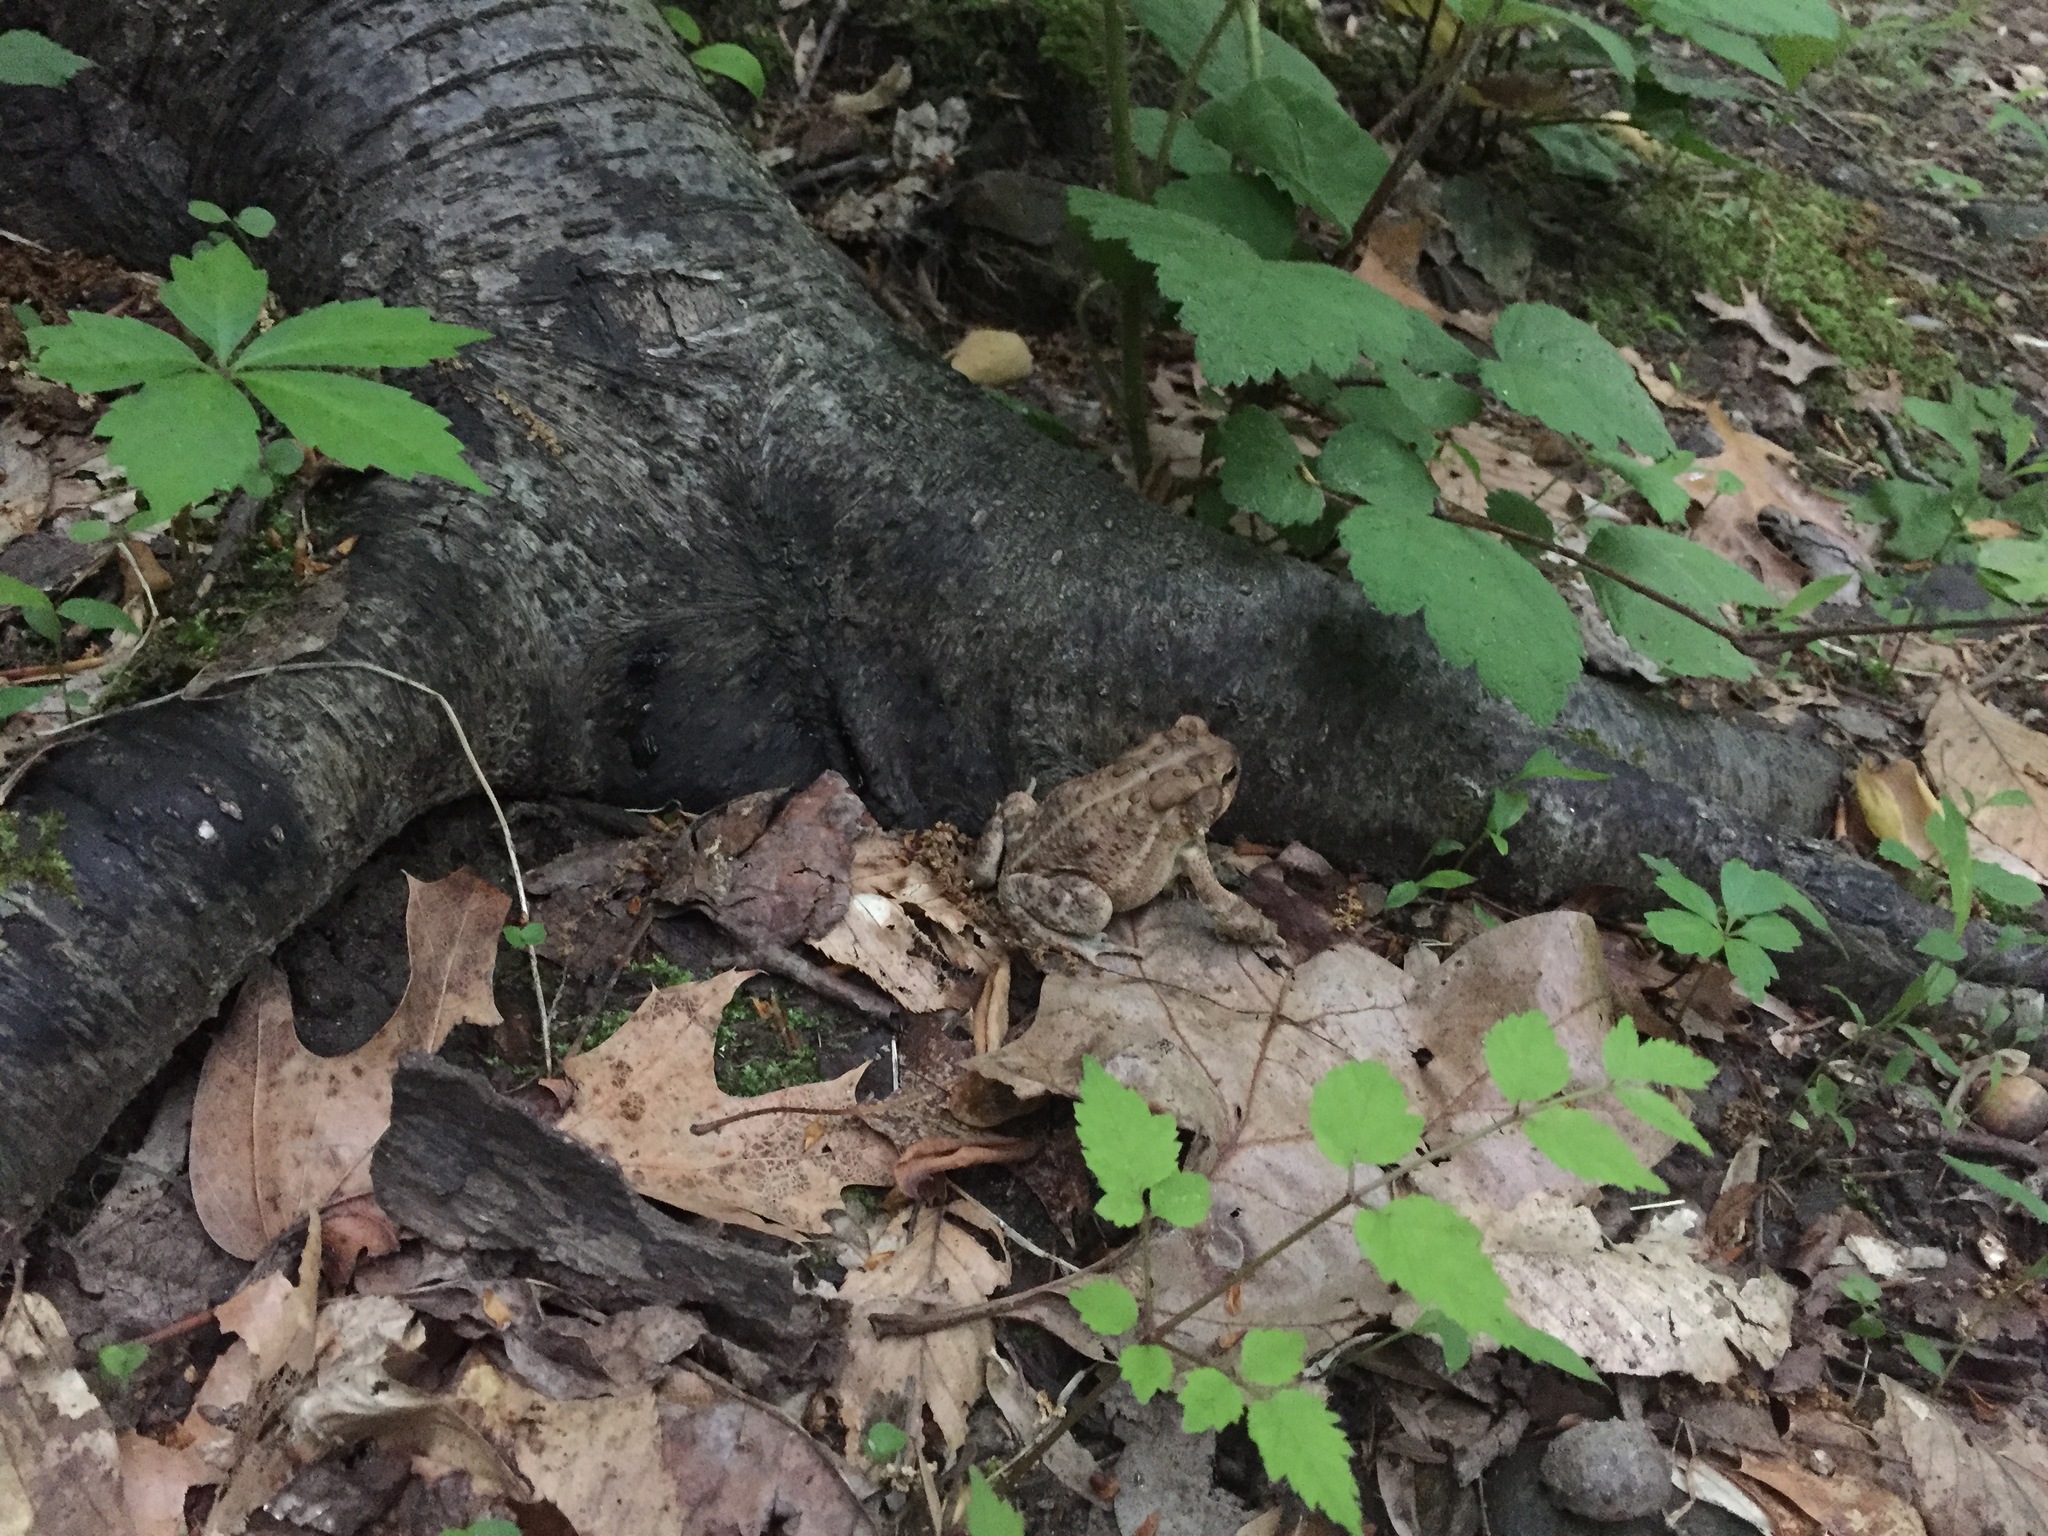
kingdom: Animalia
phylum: Chordata
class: Amphibia
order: Anura
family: Bufonidae
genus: Anaxyrus
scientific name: Anaxyrus americanus
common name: American toad
